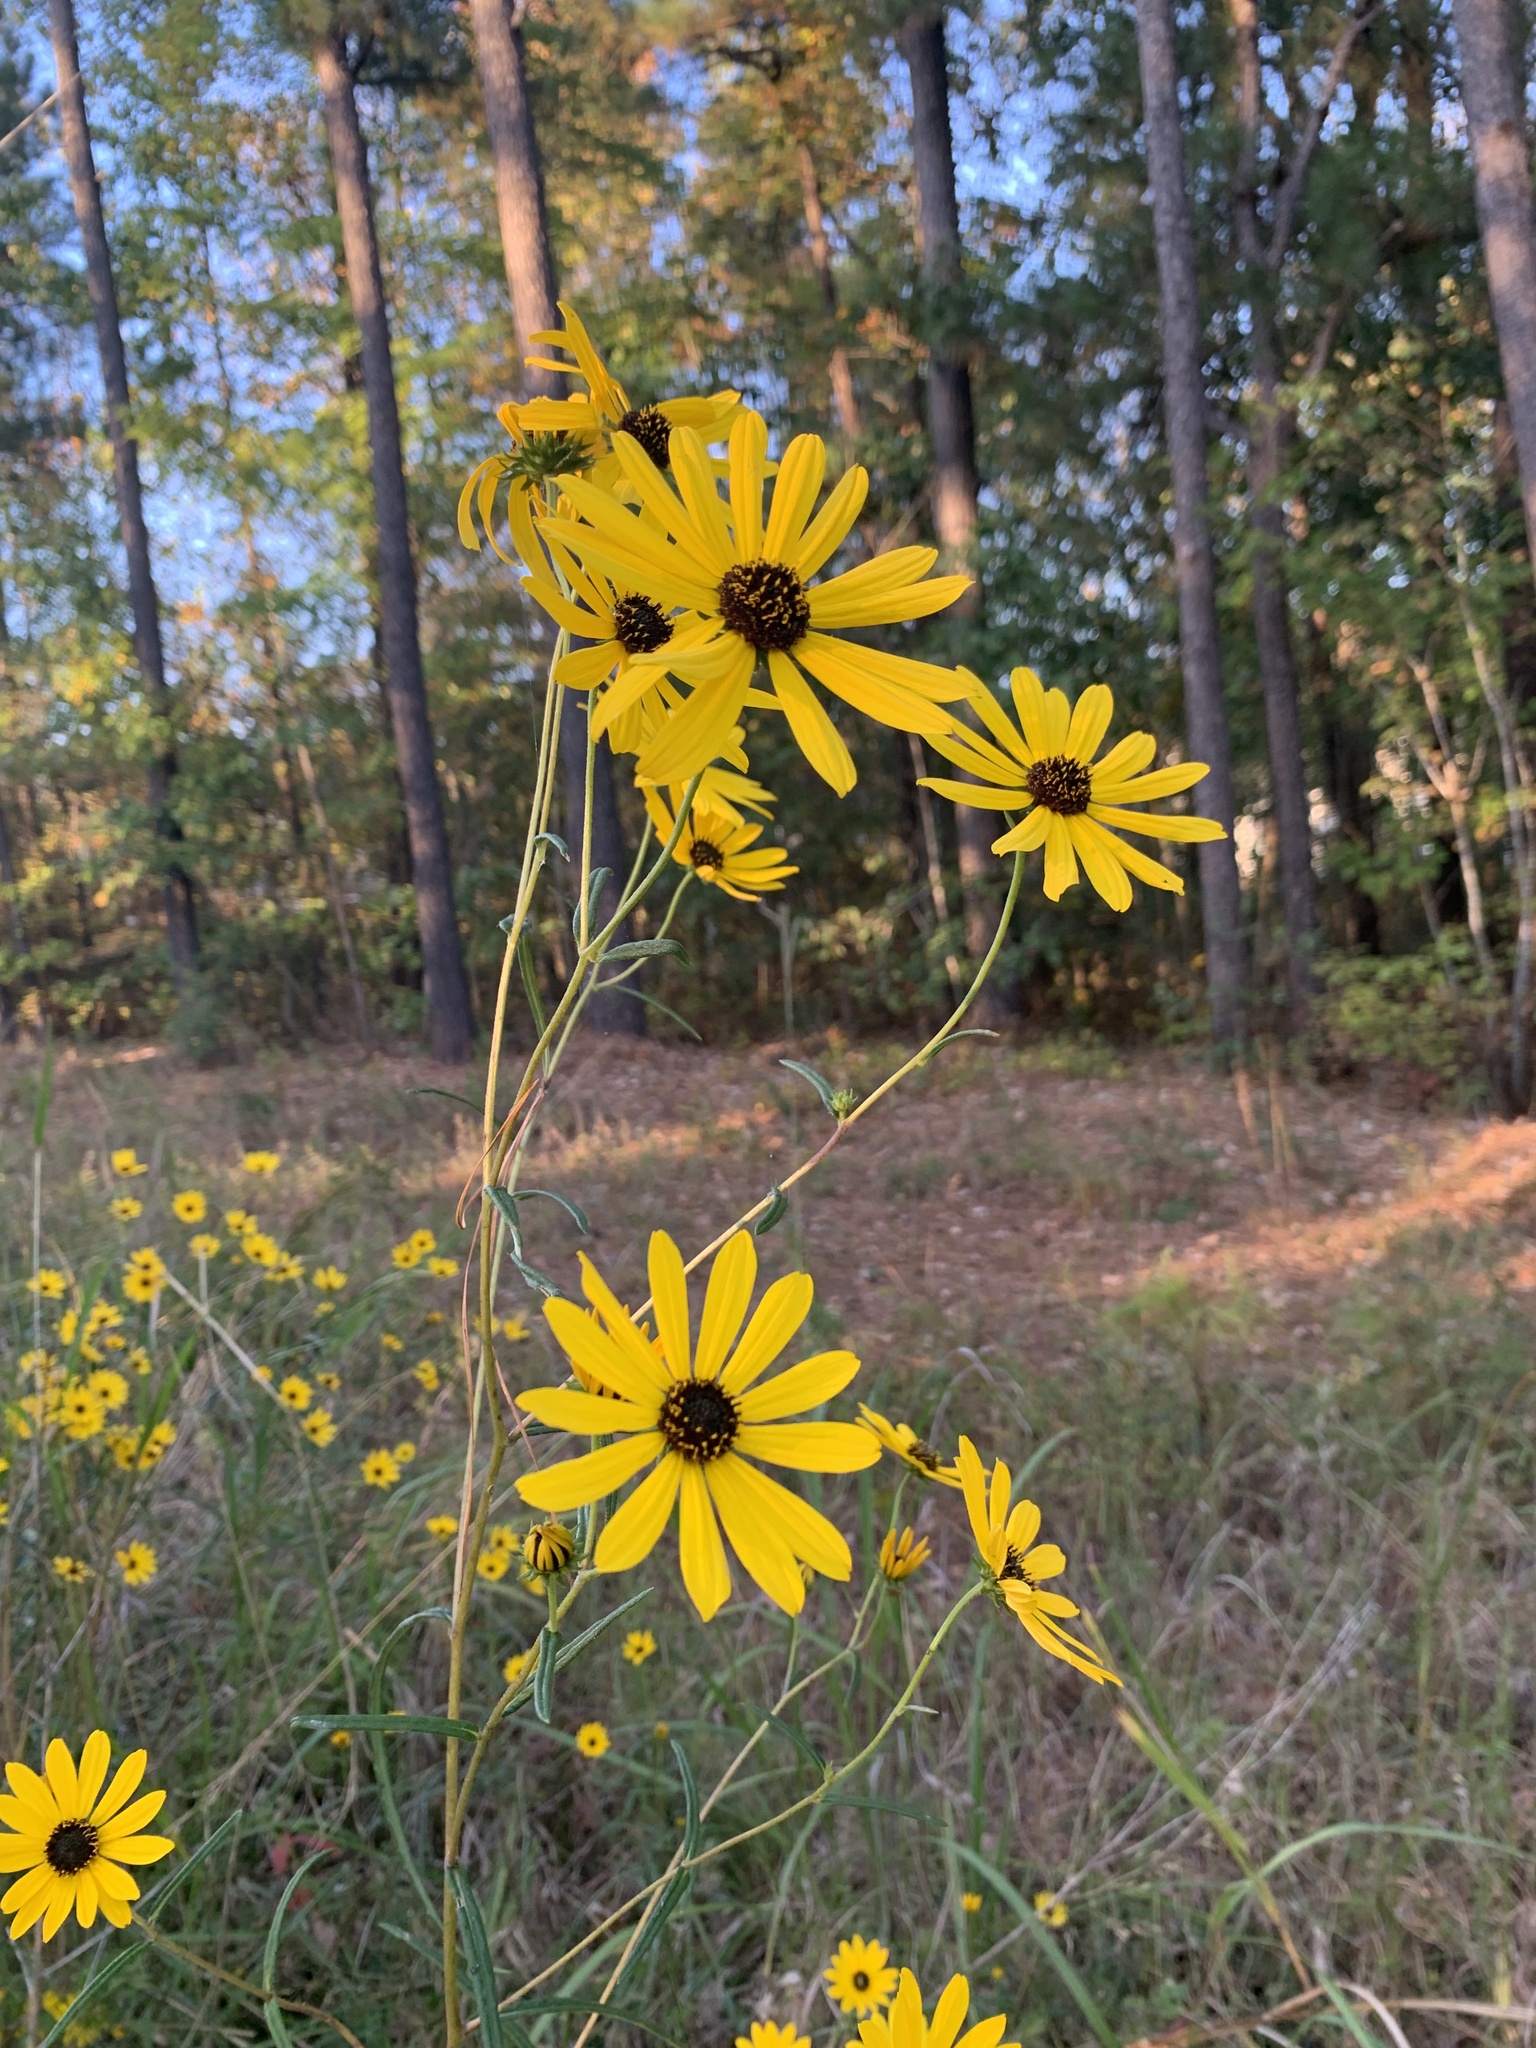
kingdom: Plantae
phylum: Tracheophyta
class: Magnoliopsida
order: Asterales
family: Asteraceae
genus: Helianthus
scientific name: Helianthus angustifolius
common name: Swamp sunflower
